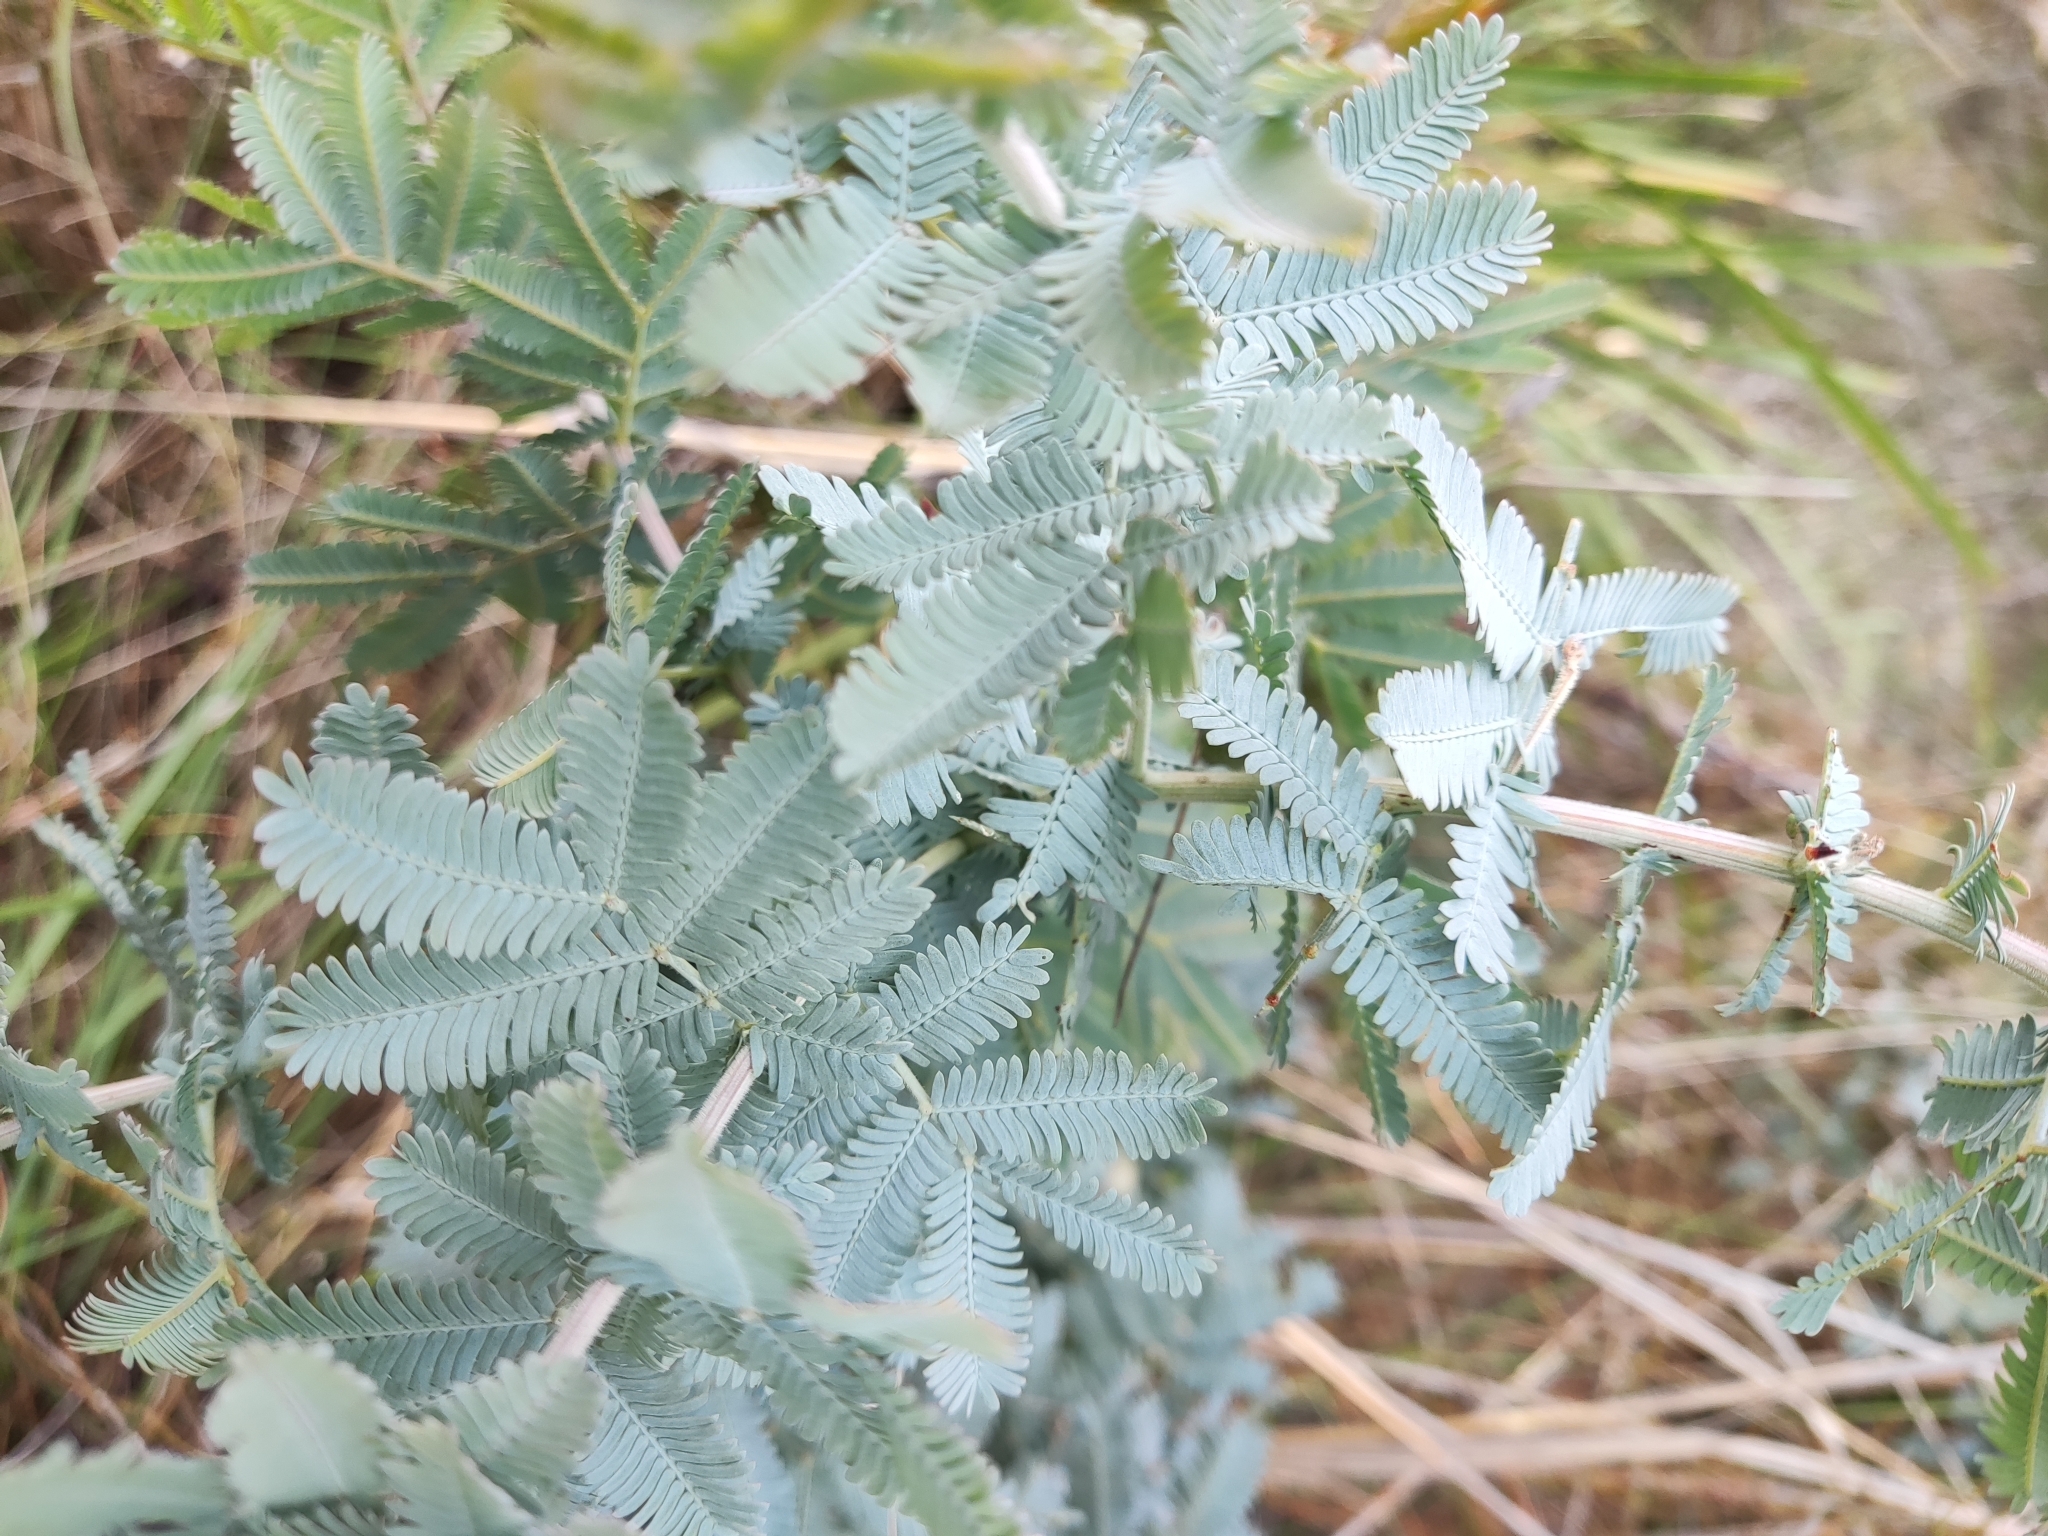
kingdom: Plantae
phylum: Tracheophyta
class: Magnoliopsida
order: Fabales
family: Fabaceae
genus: Acacia
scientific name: Acacia baileyana
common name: Cootamundra wattle
